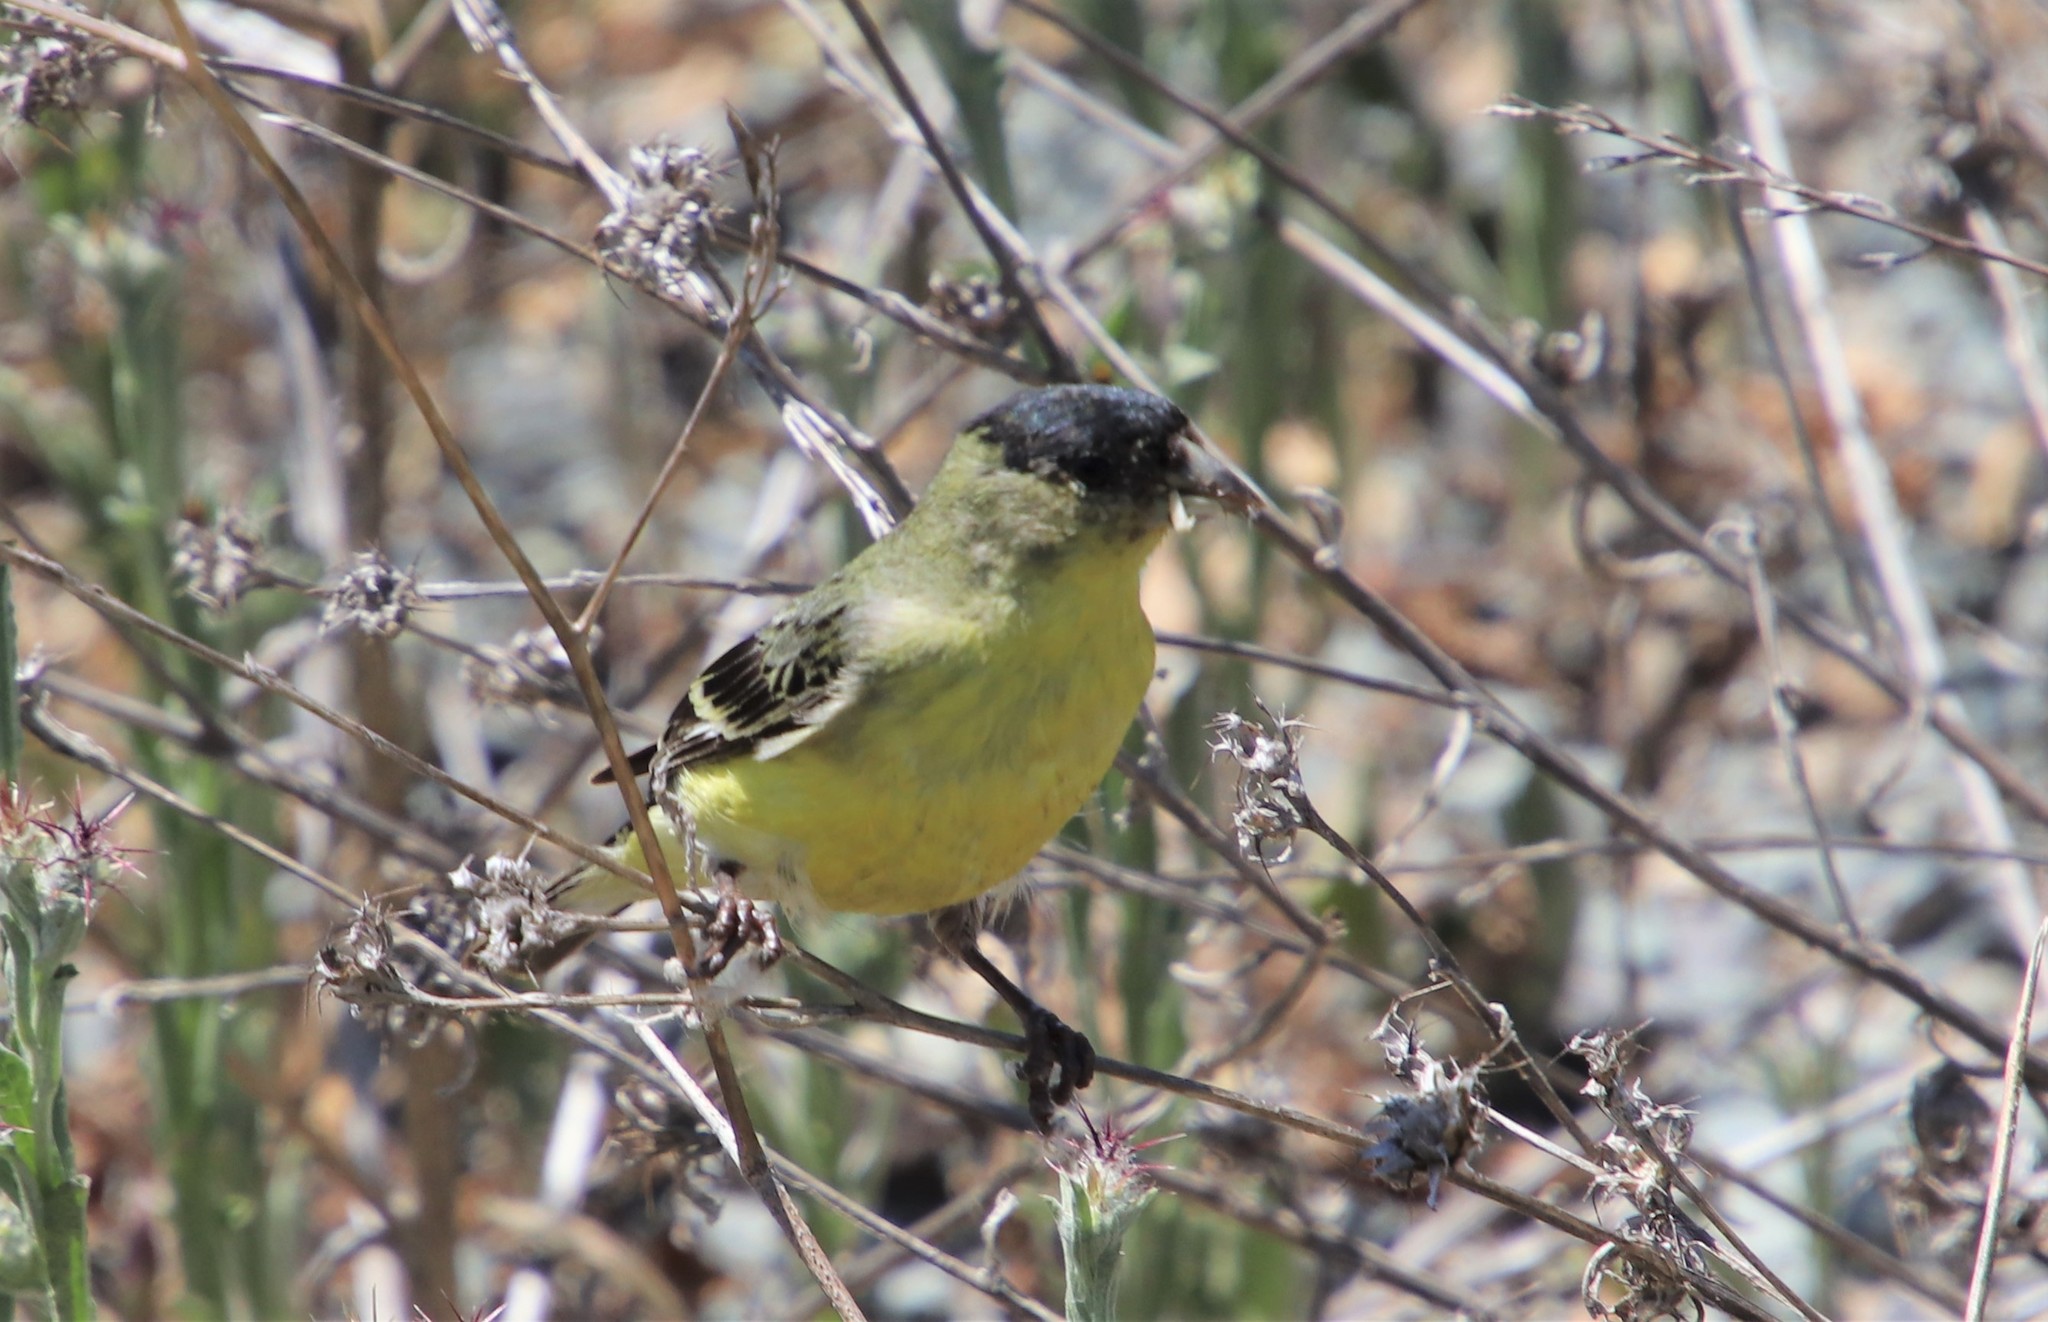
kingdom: Animalia
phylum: Chordata
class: Aves
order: Passeriformes
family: Fringillidae
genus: Spinus
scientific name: Spinus psaltria
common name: Lesser goldfinch
